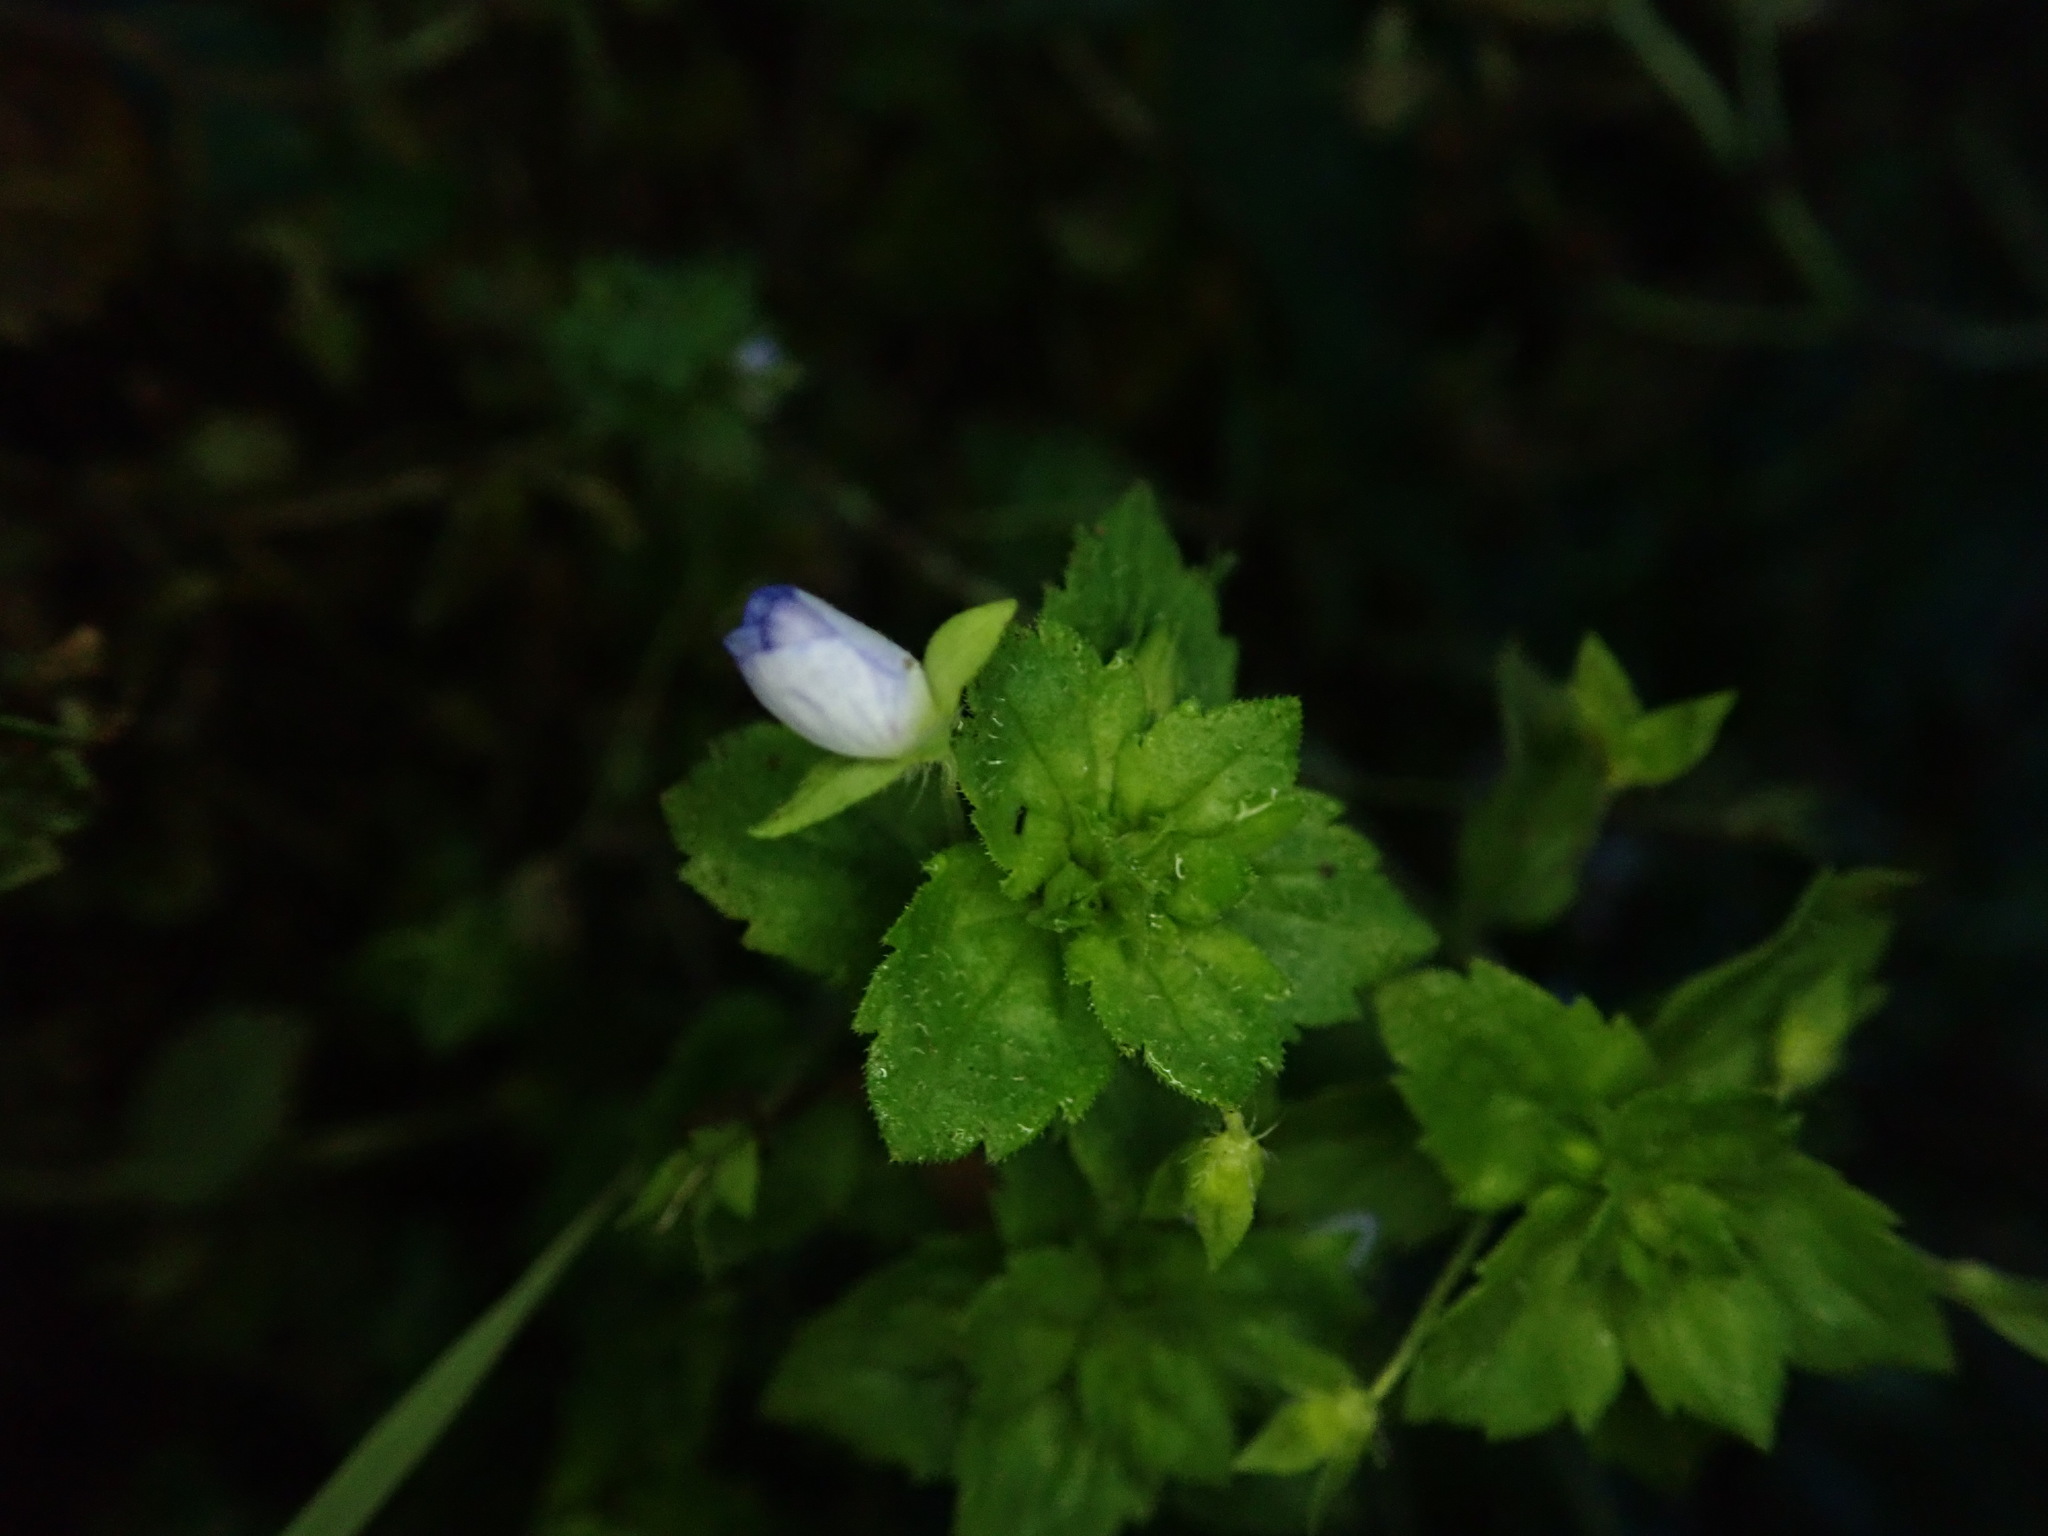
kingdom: Plantae
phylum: Tracheophyta
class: Magnoliopsida
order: Lamiales
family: Plantaginaceae
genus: Veronica
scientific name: Veronica persica
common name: Common field-speedwell
